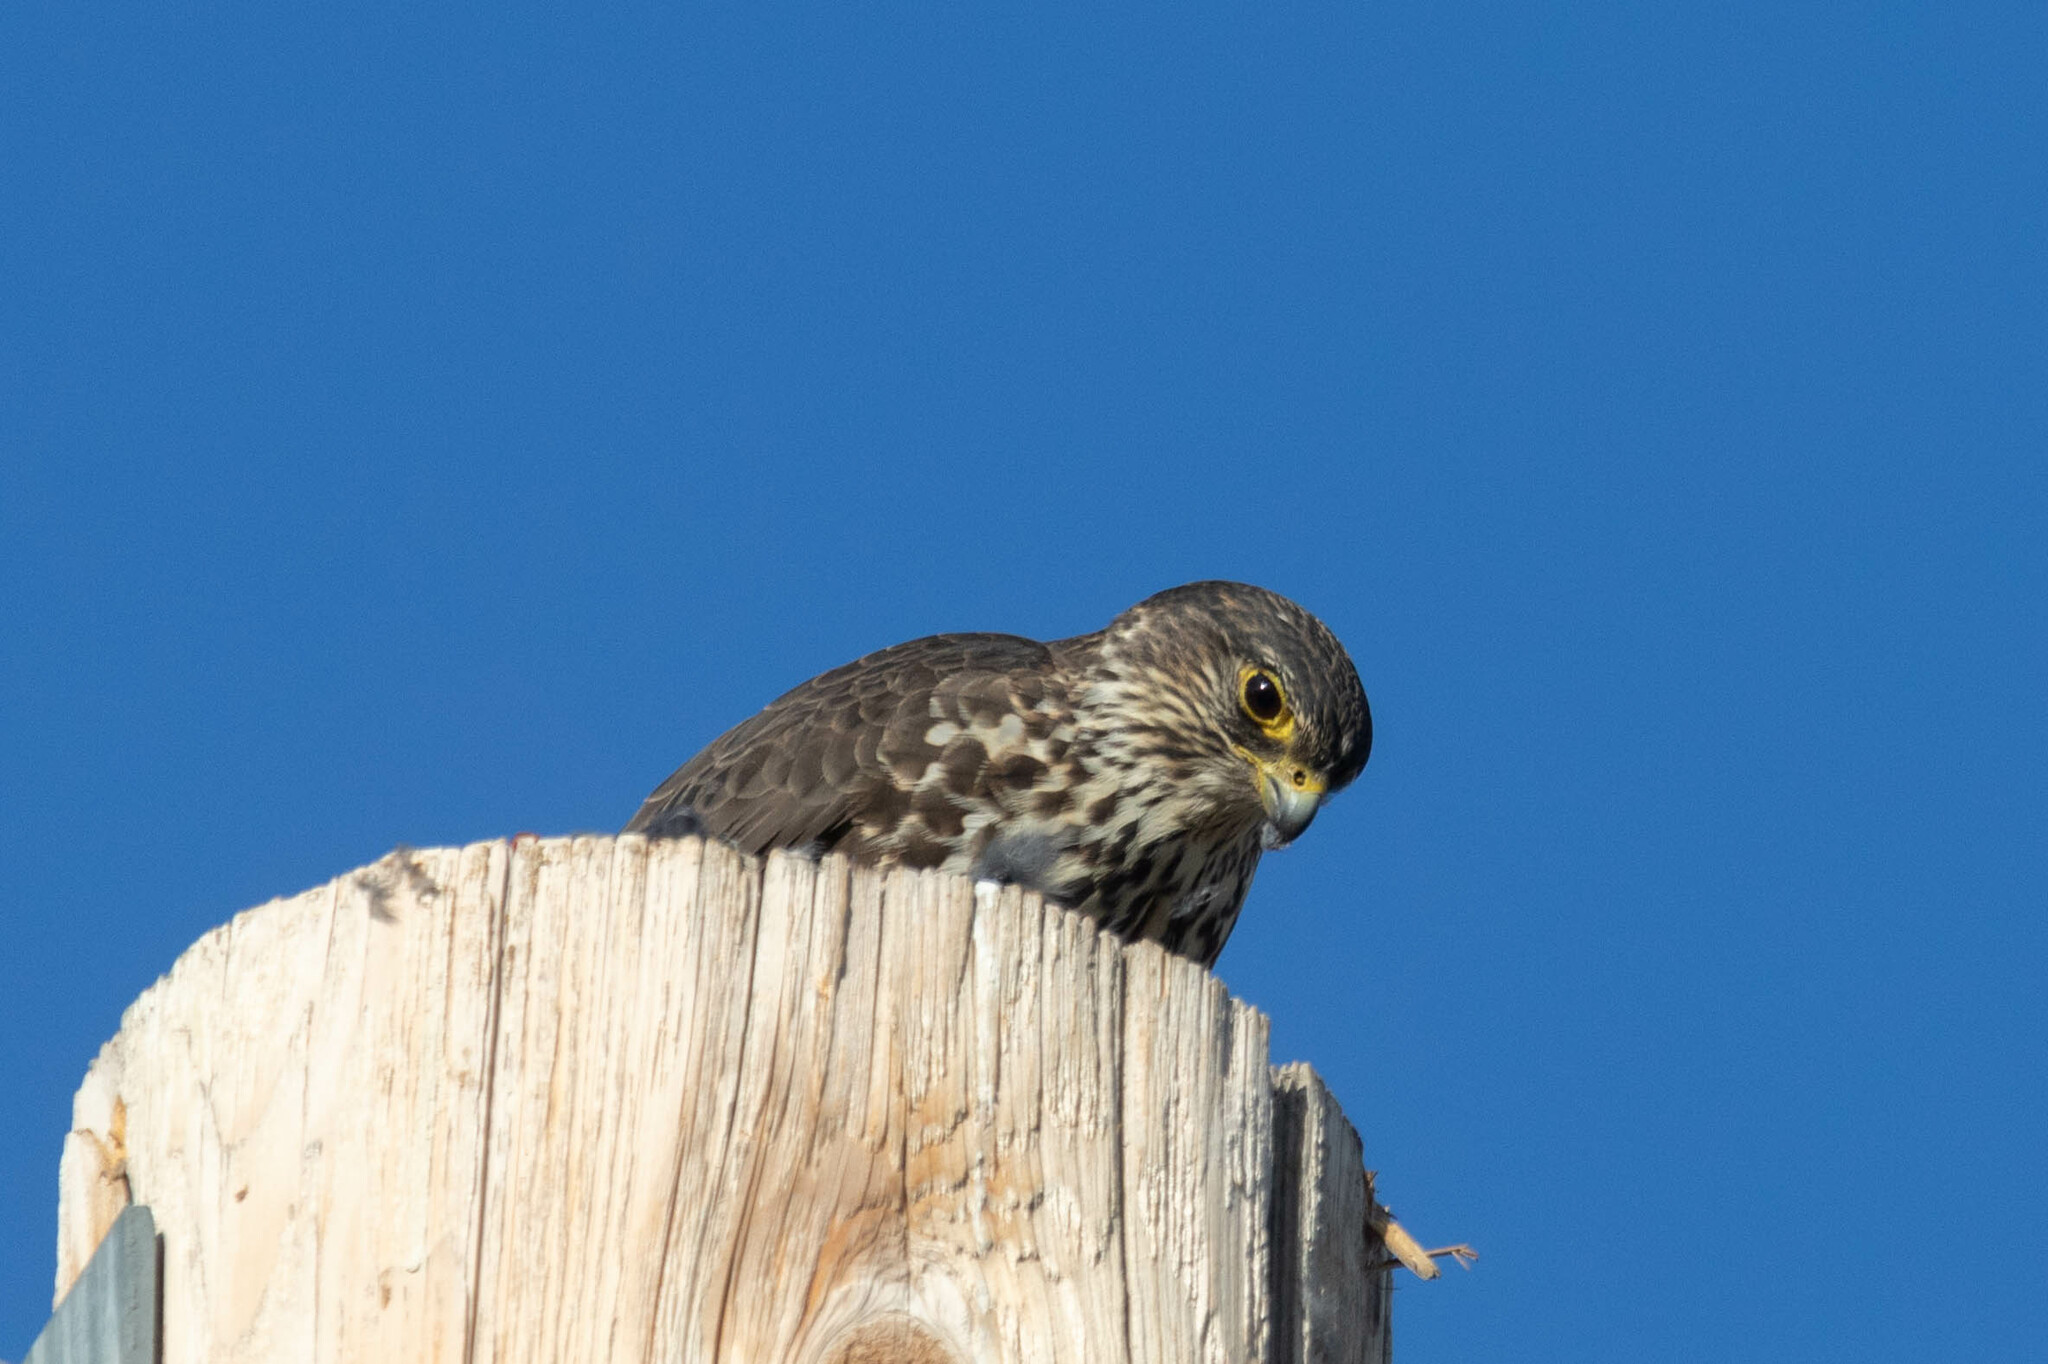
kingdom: Animalia
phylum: Chordata
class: Aves
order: Falconiformes
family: Falconidae
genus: Falco
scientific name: Falco columbarius
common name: Merlin
